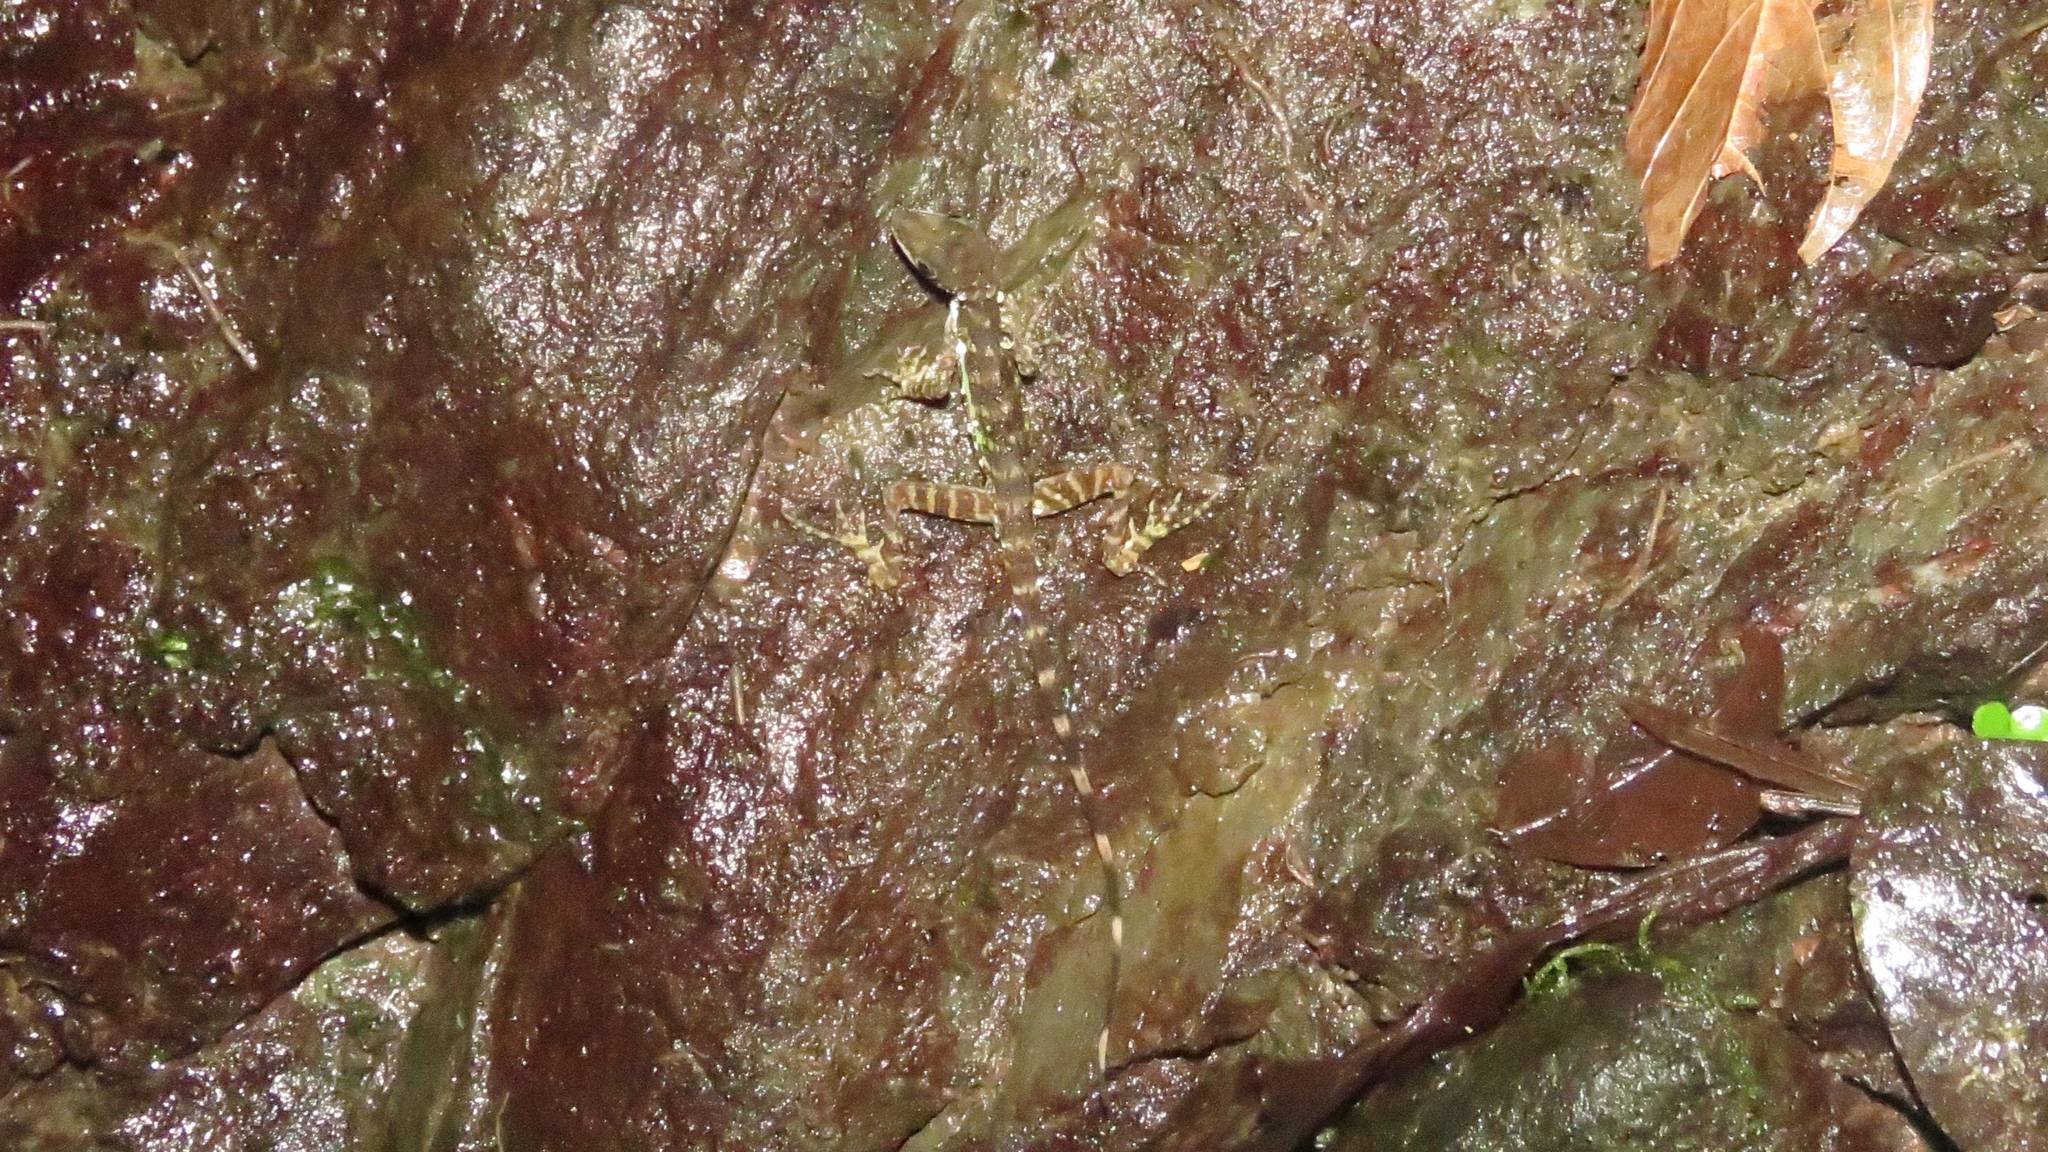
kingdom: Animalia
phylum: Chordata
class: Squamata
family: Dactyloidae
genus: Anolis
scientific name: Anolis aquaticus
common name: Aquatic anole
